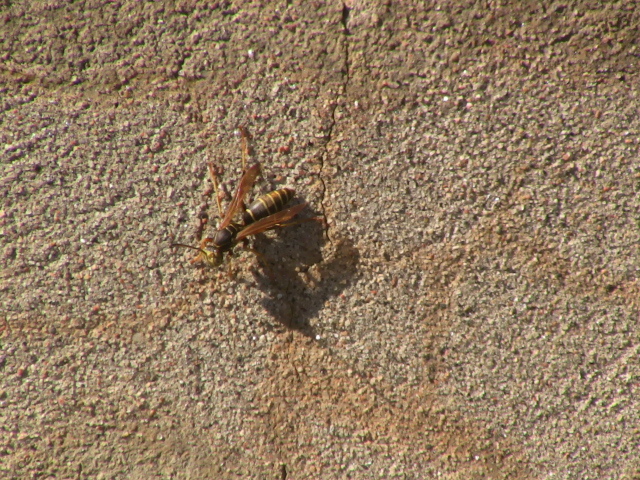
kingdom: Animalia
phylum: Arthropoda
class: Insecta
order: Hymenoptera
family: Eumenidae
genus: Polistes
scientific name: Polistes fuscatus
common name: Dark paper wasp
